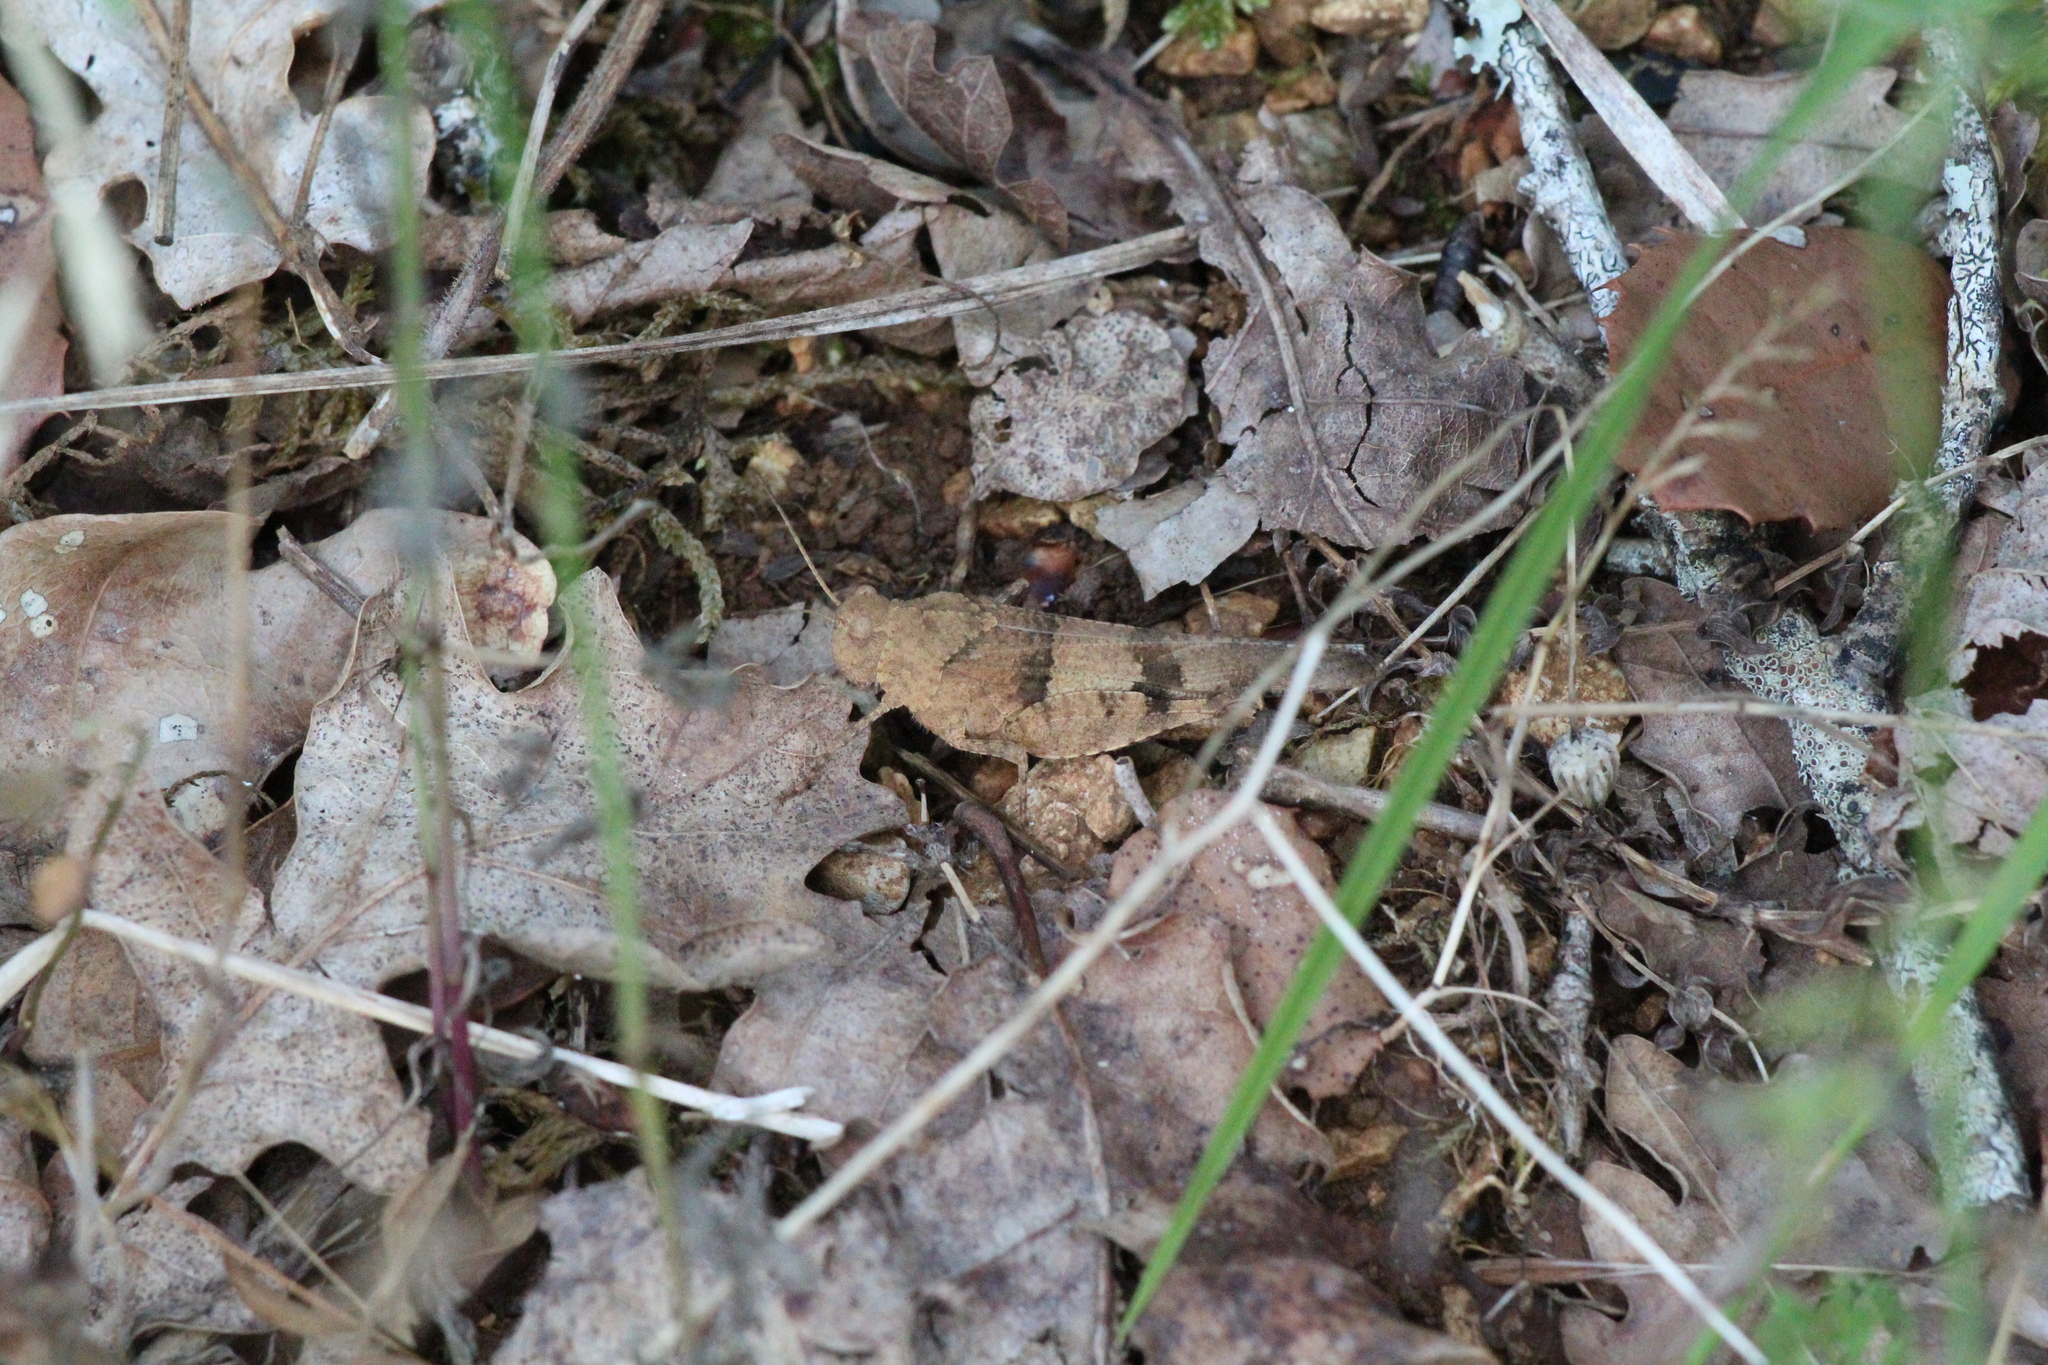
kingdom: Animalia
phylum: Arthropoda
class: Insecta
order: Orthoptera
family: Acrididae
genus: Oedipoda
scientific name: Oedipoda caerulescens
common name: Blue-winged grasshopper
